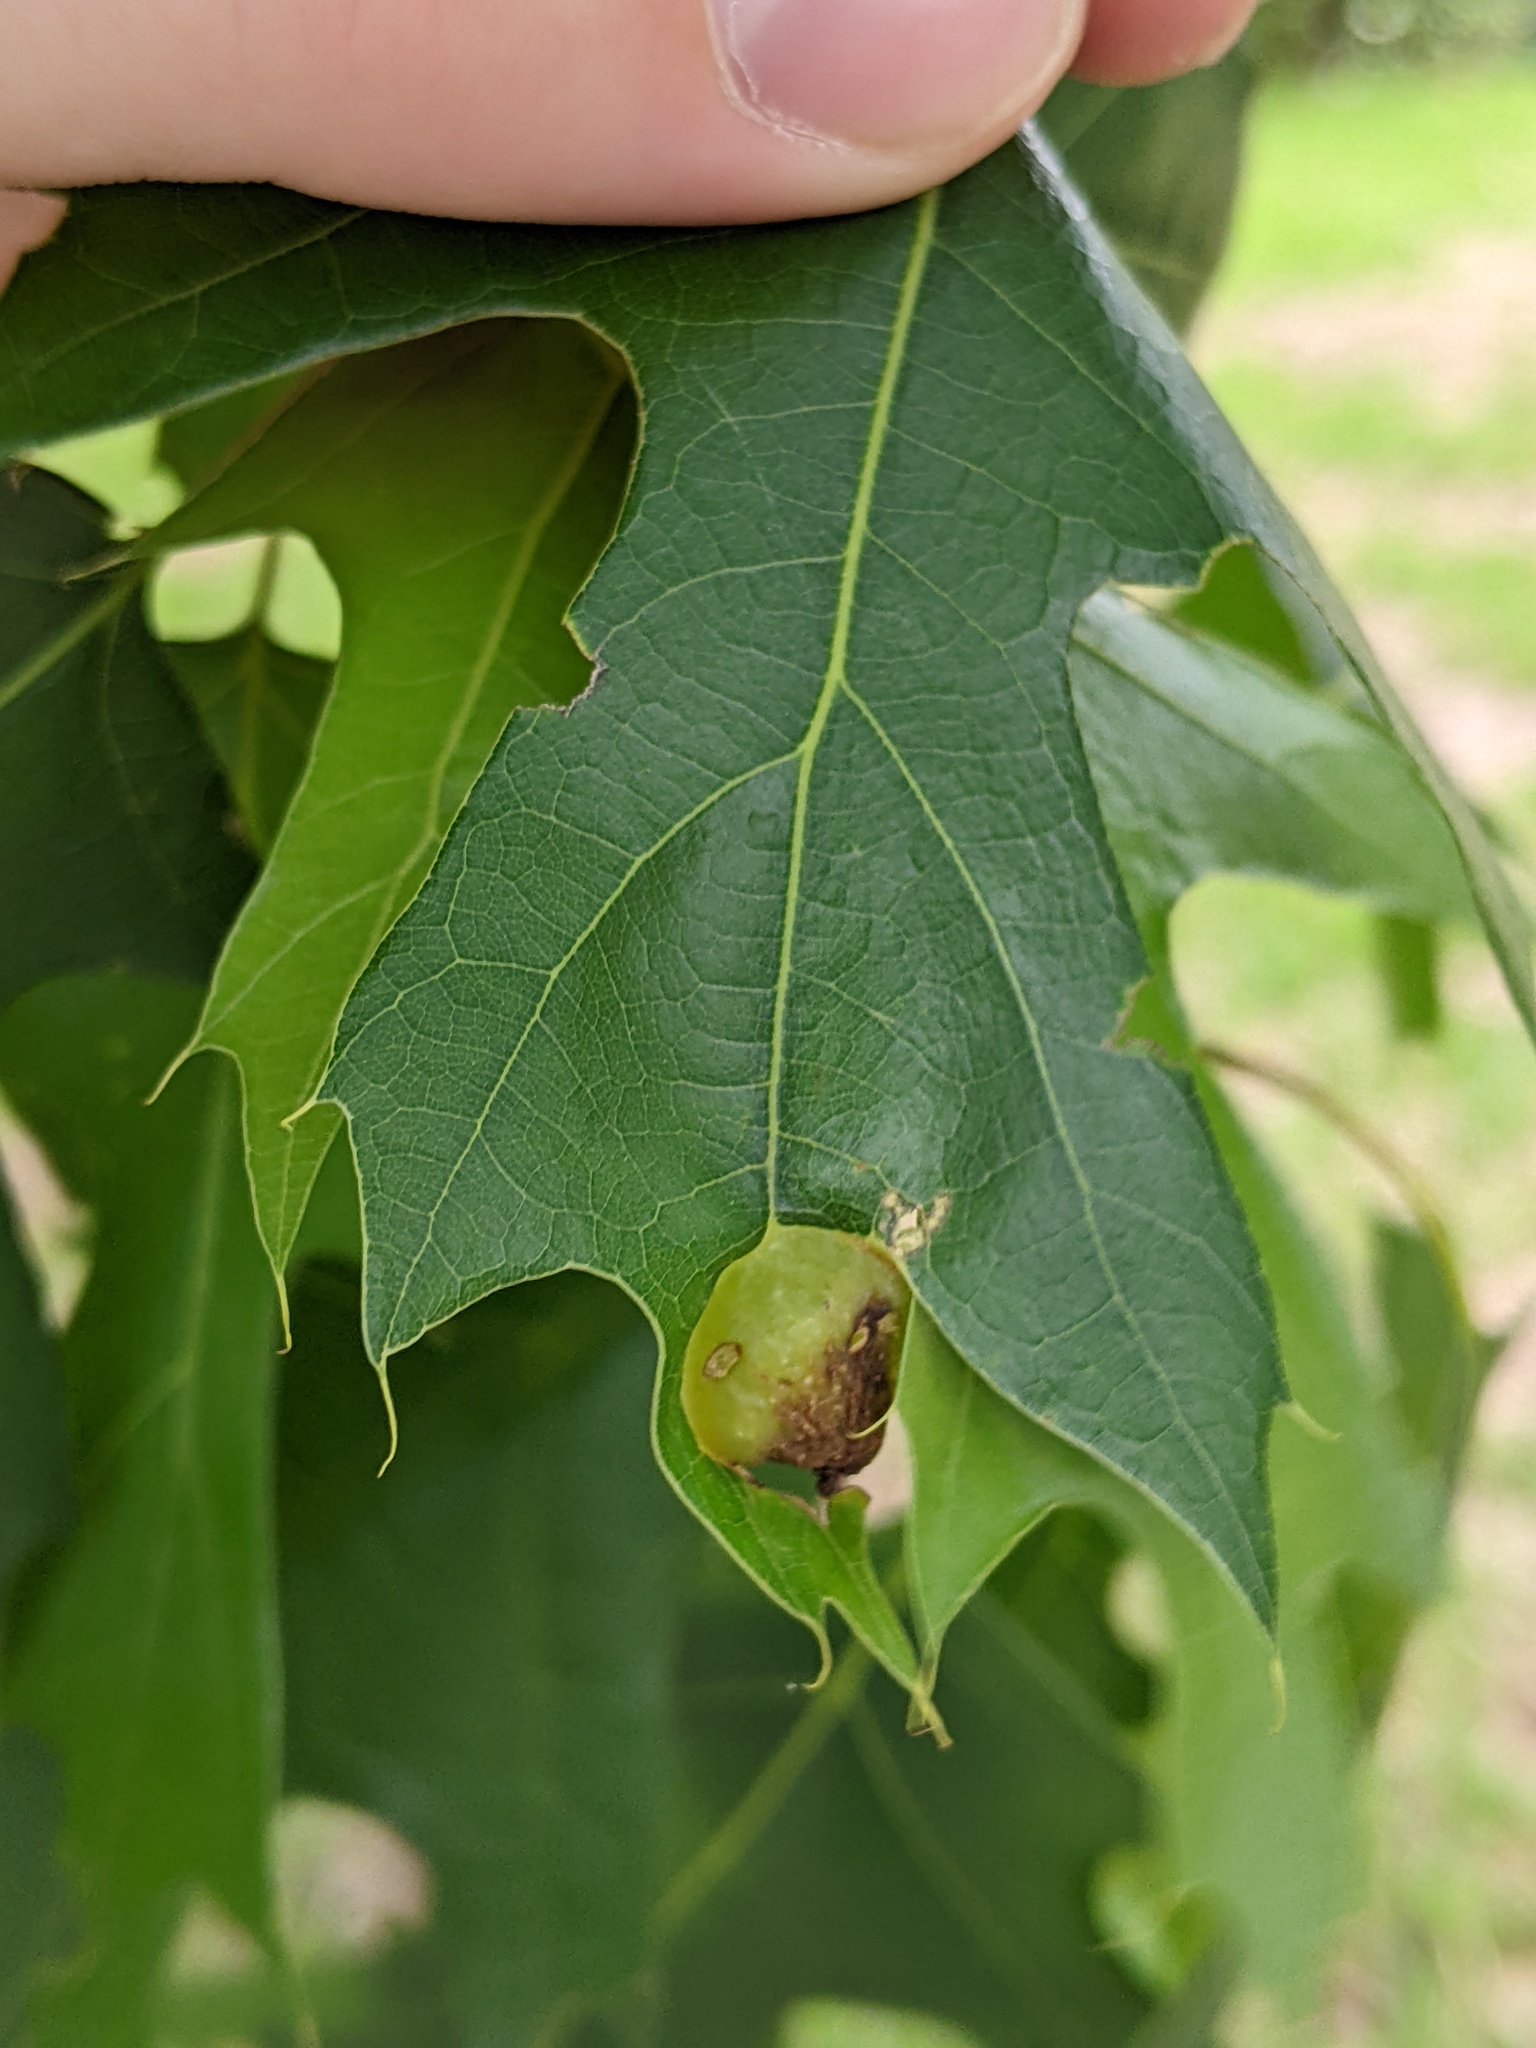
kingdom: Animalia
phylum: Arthropoda
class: Insecta
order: Hymenoptera
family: Cynipidae
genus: Dryocosmus
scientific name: Dryocosmus quercuspalustris
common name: Succulent oak gall wasp
